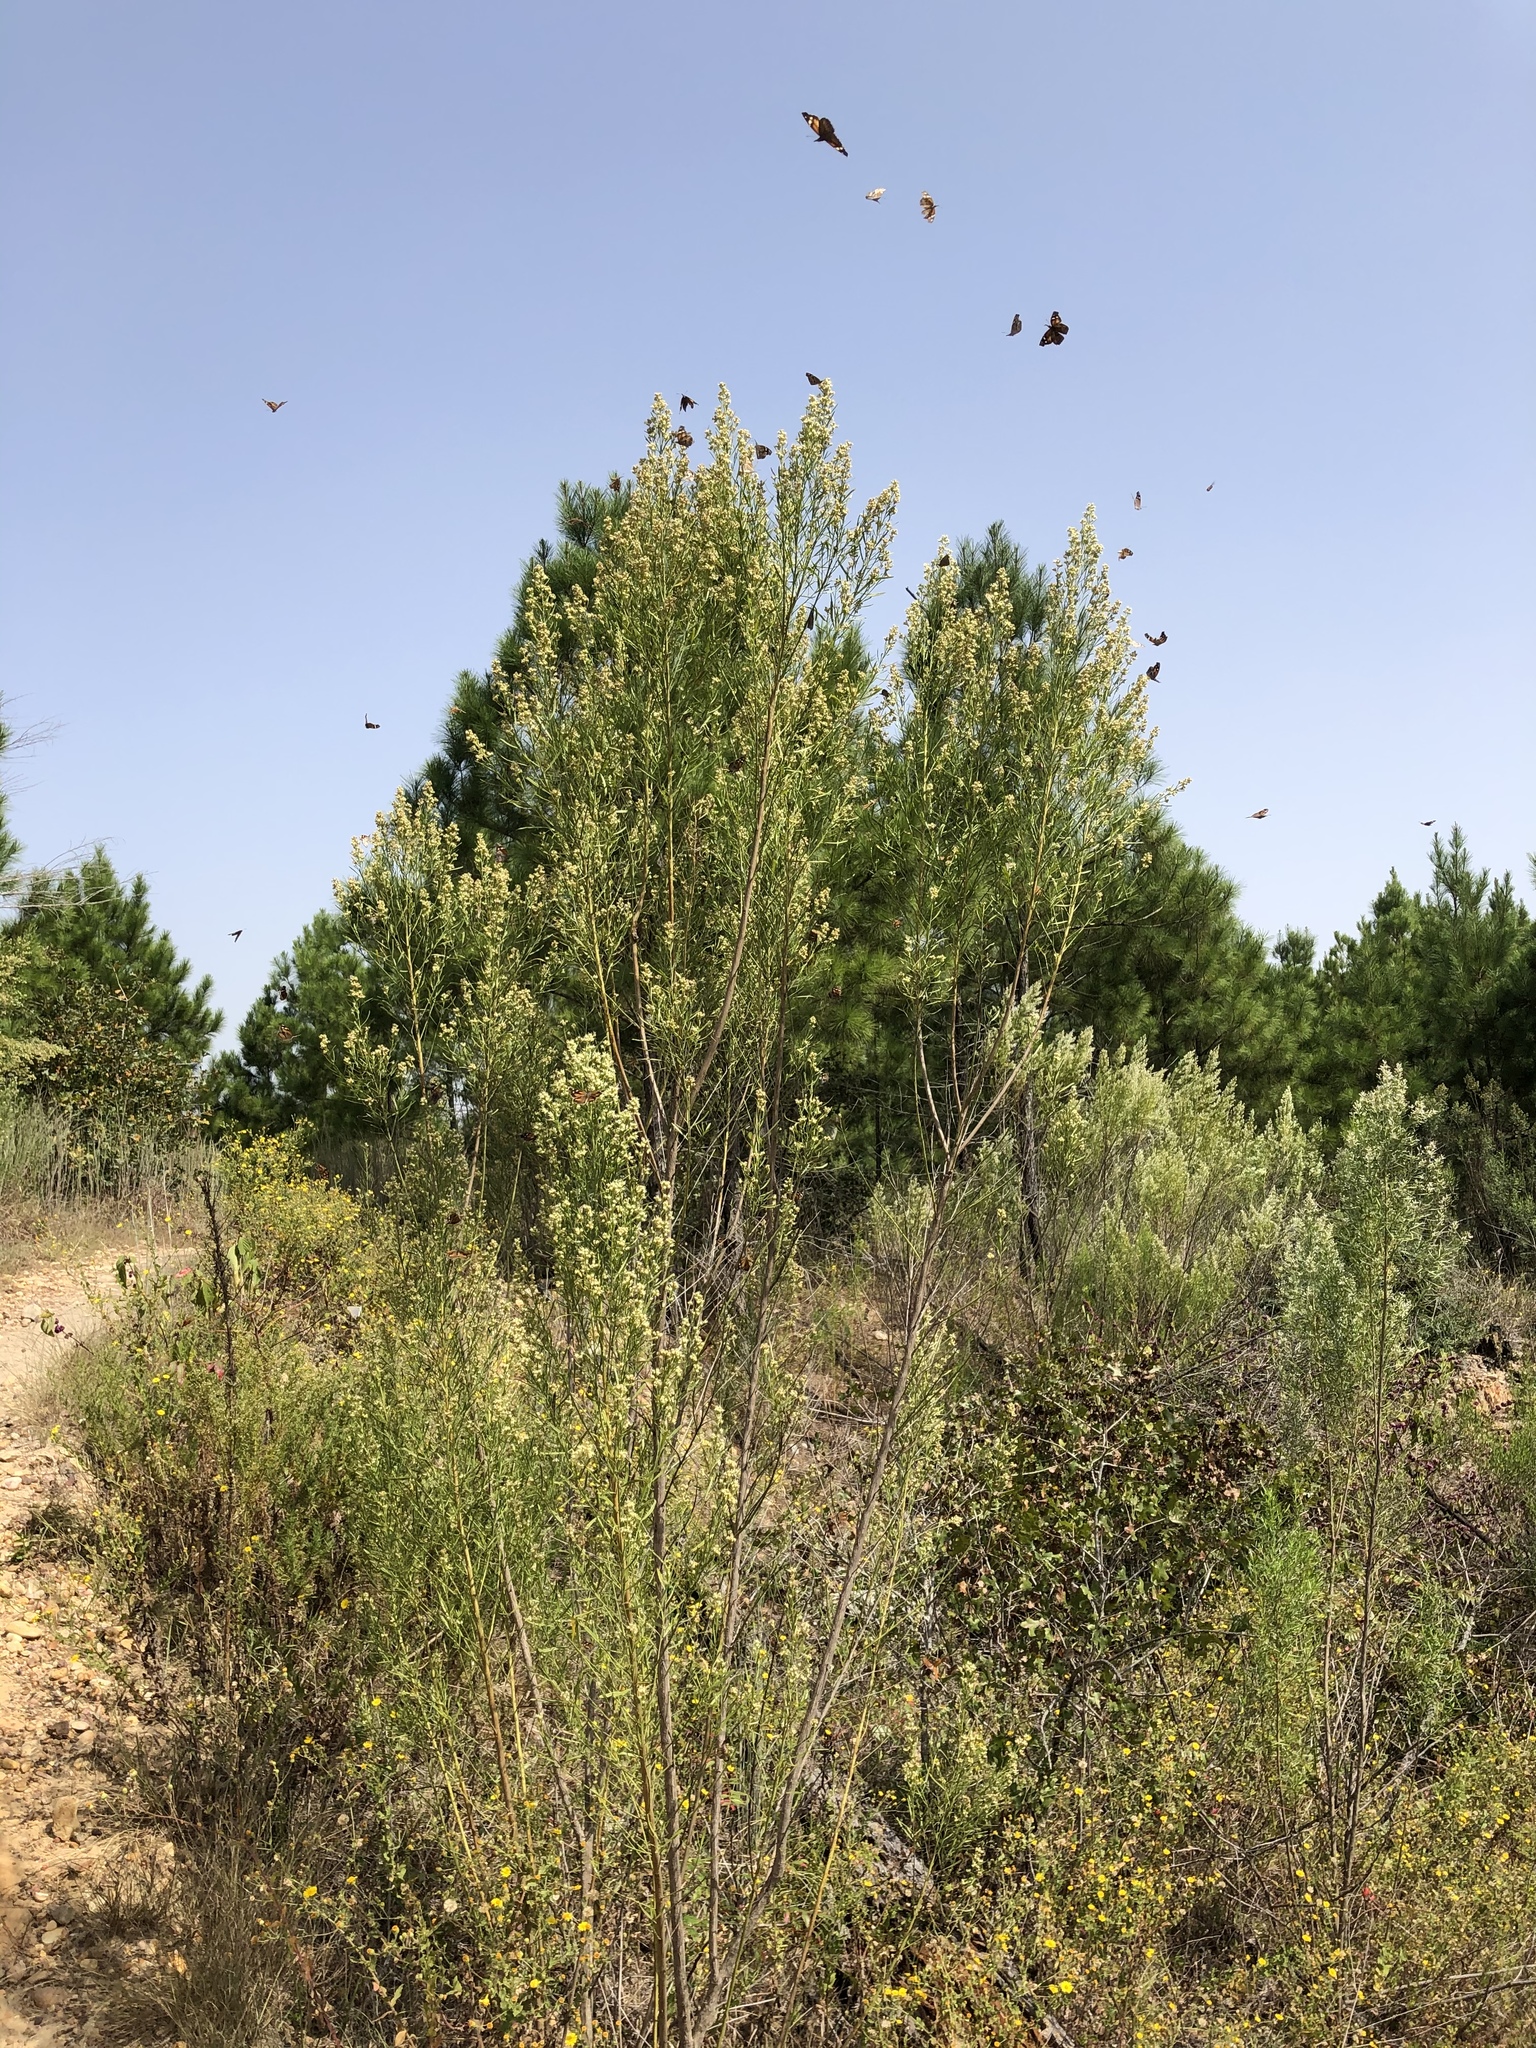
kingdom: Plantae
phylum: Tracheophyta
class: Magnoliopsida
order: Asterales
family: Asteraceae
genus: Baccharis
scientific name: Baccharis neglecta
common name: Roosevelt-weed
